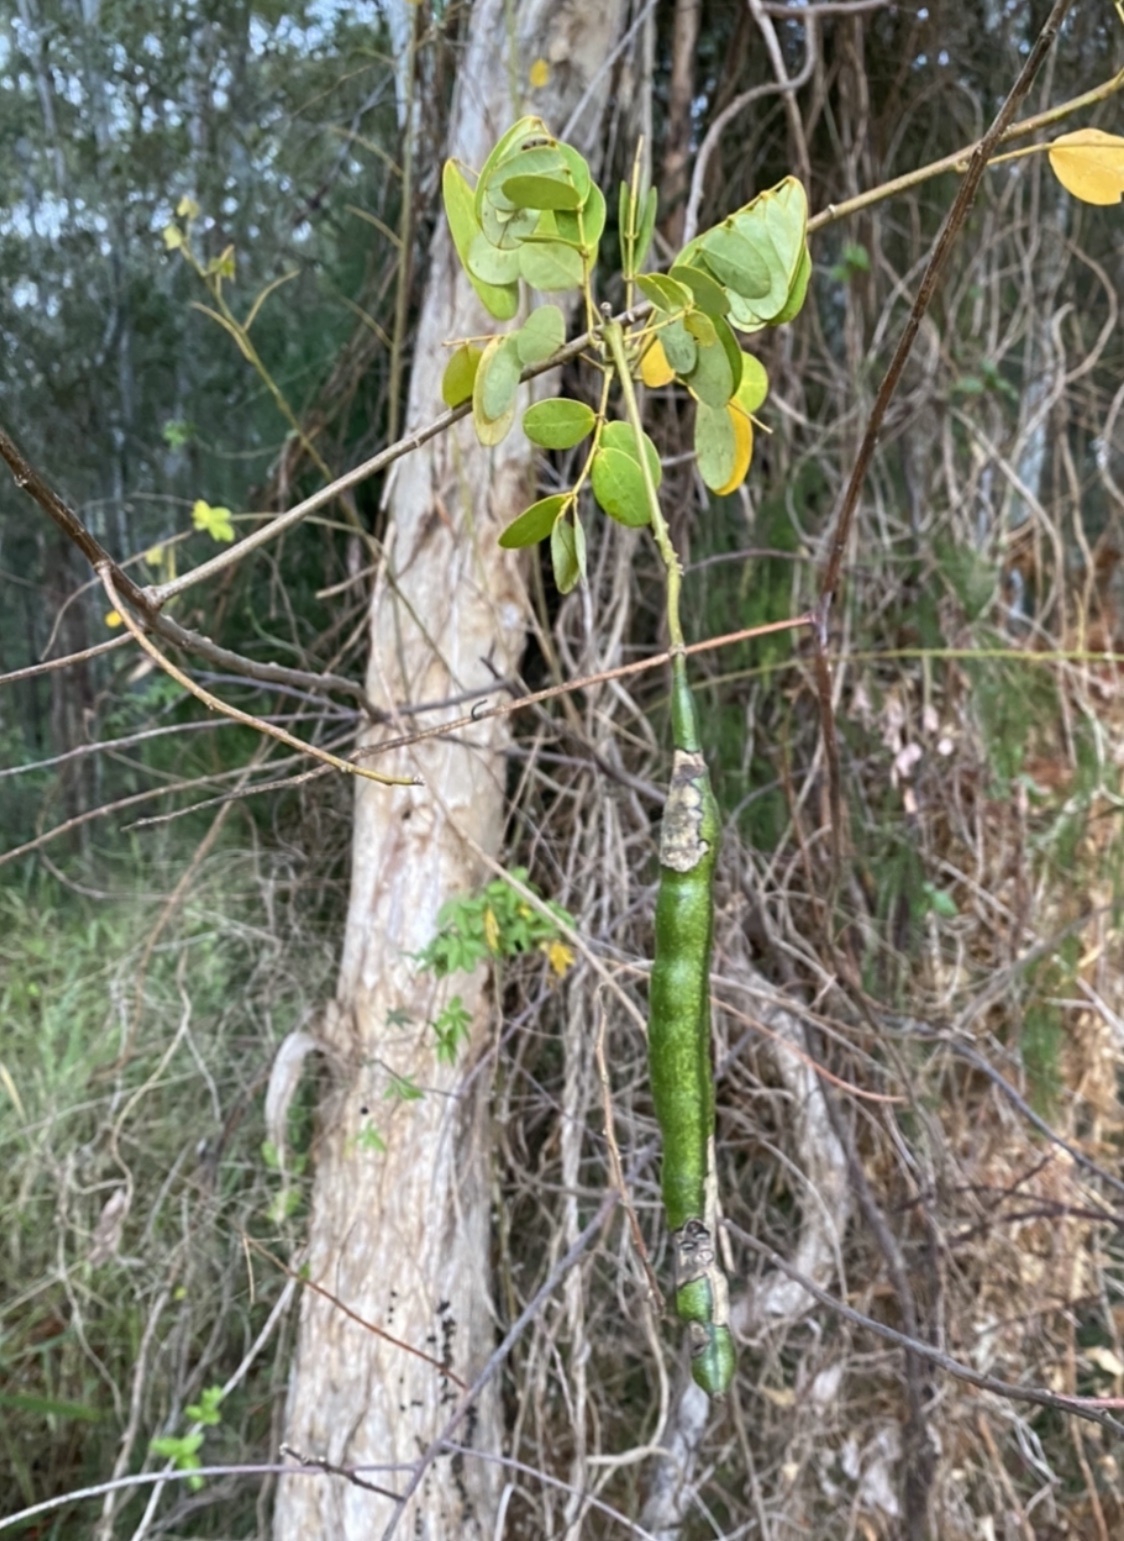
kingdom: Plantae
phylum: Tracheophyta
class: Magnoliopsida
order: Fabales
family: Fabaceae
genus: Senna
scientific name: Senna pendula
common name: Easter cassia
